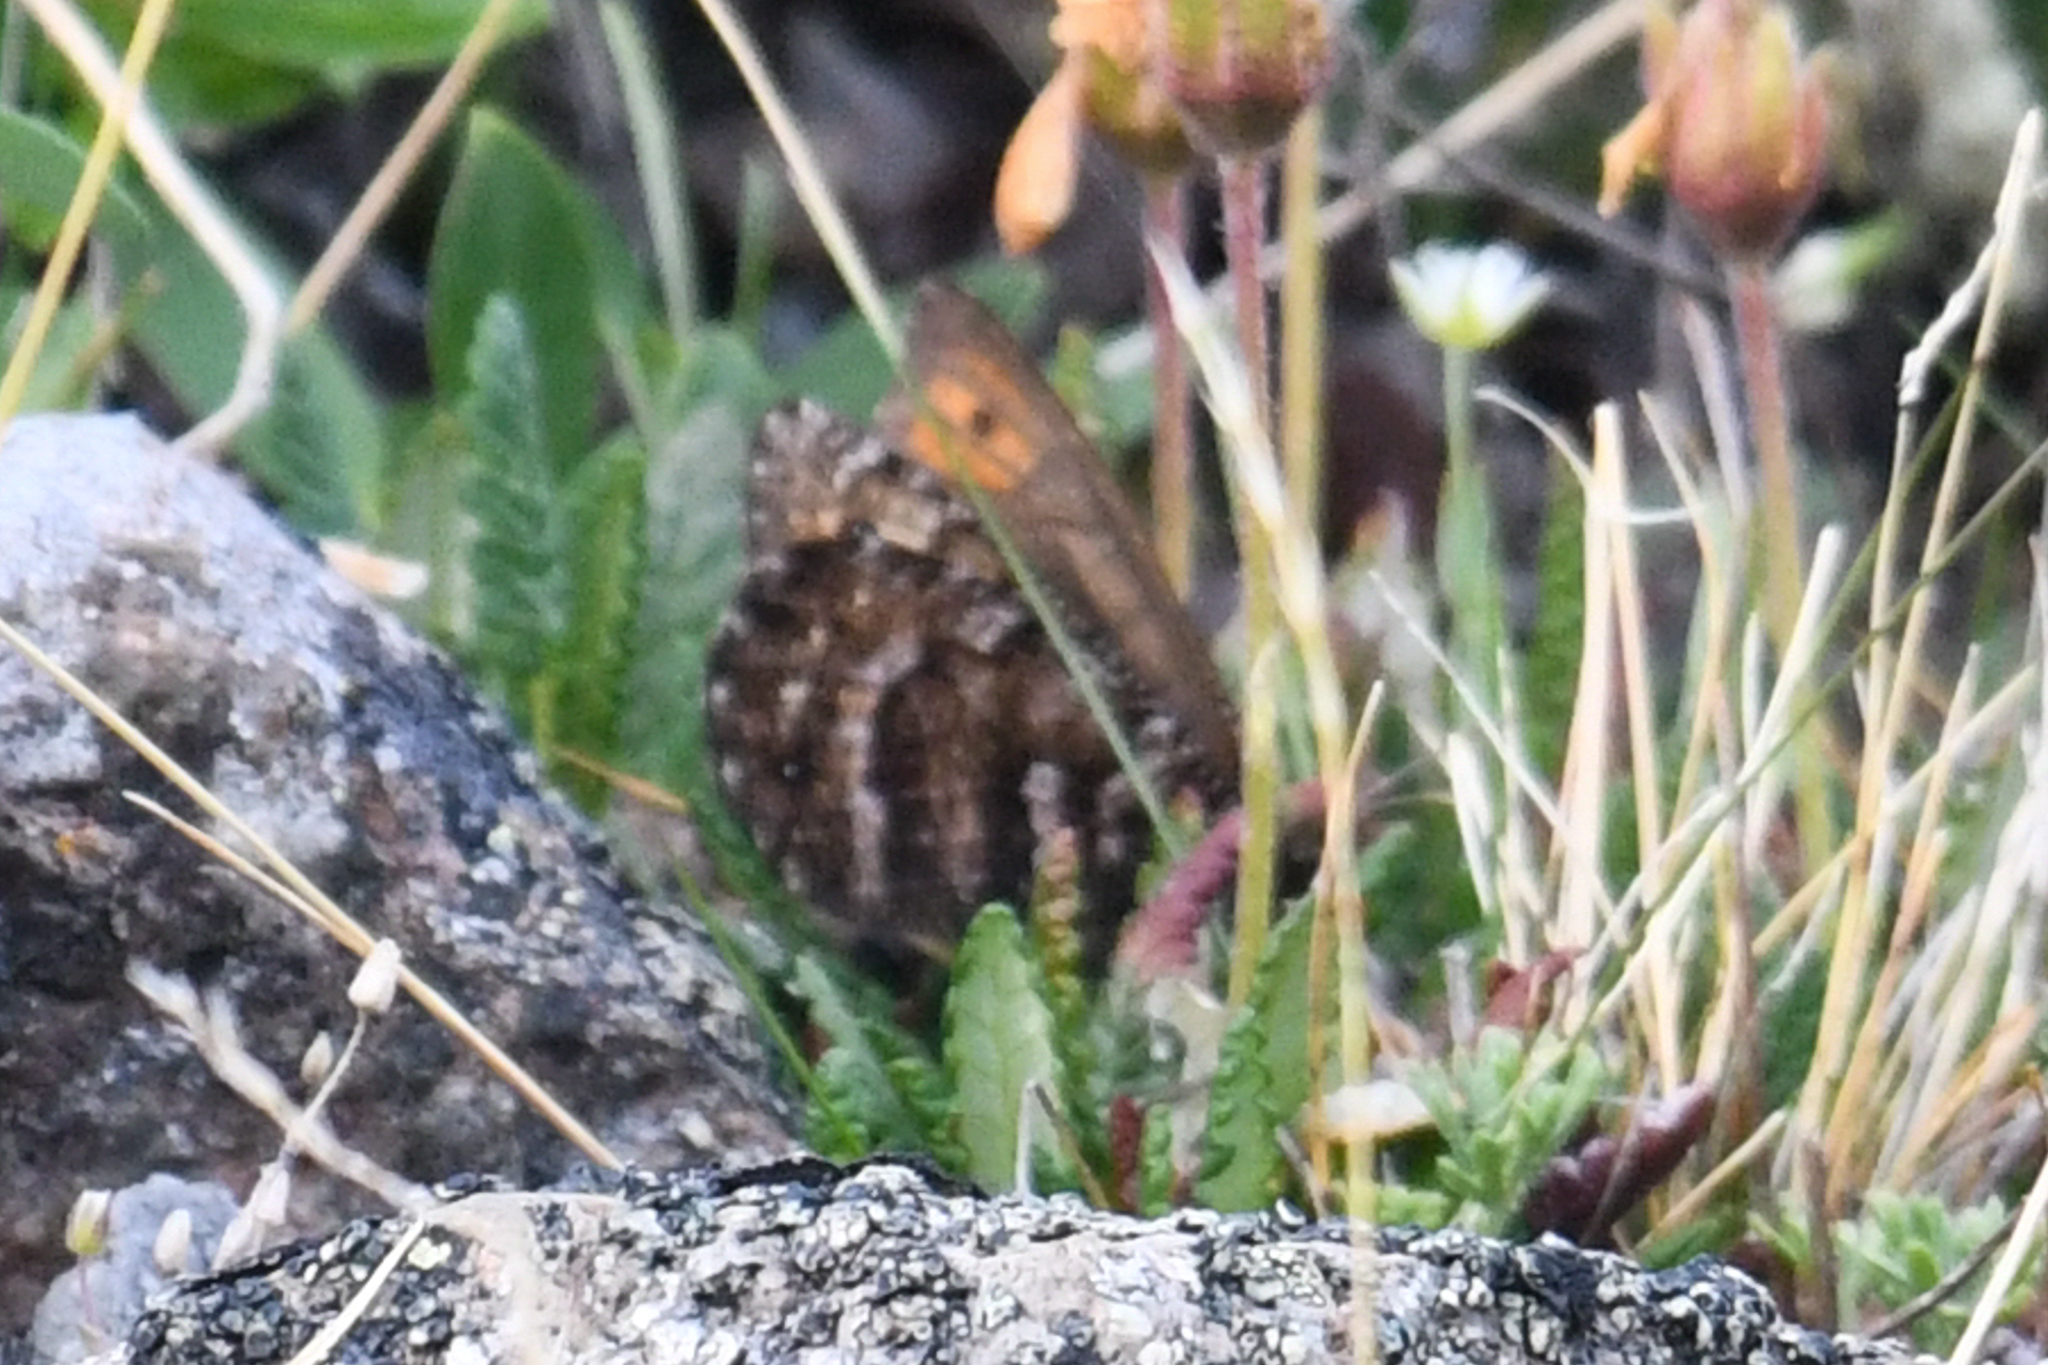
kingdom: Animalia
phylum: Arthropoda
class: Insecta
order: Lepidoptera
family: Nymphalidae
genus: Oeneis
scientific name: Oeneis chryxus
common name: Chryxus arctic
